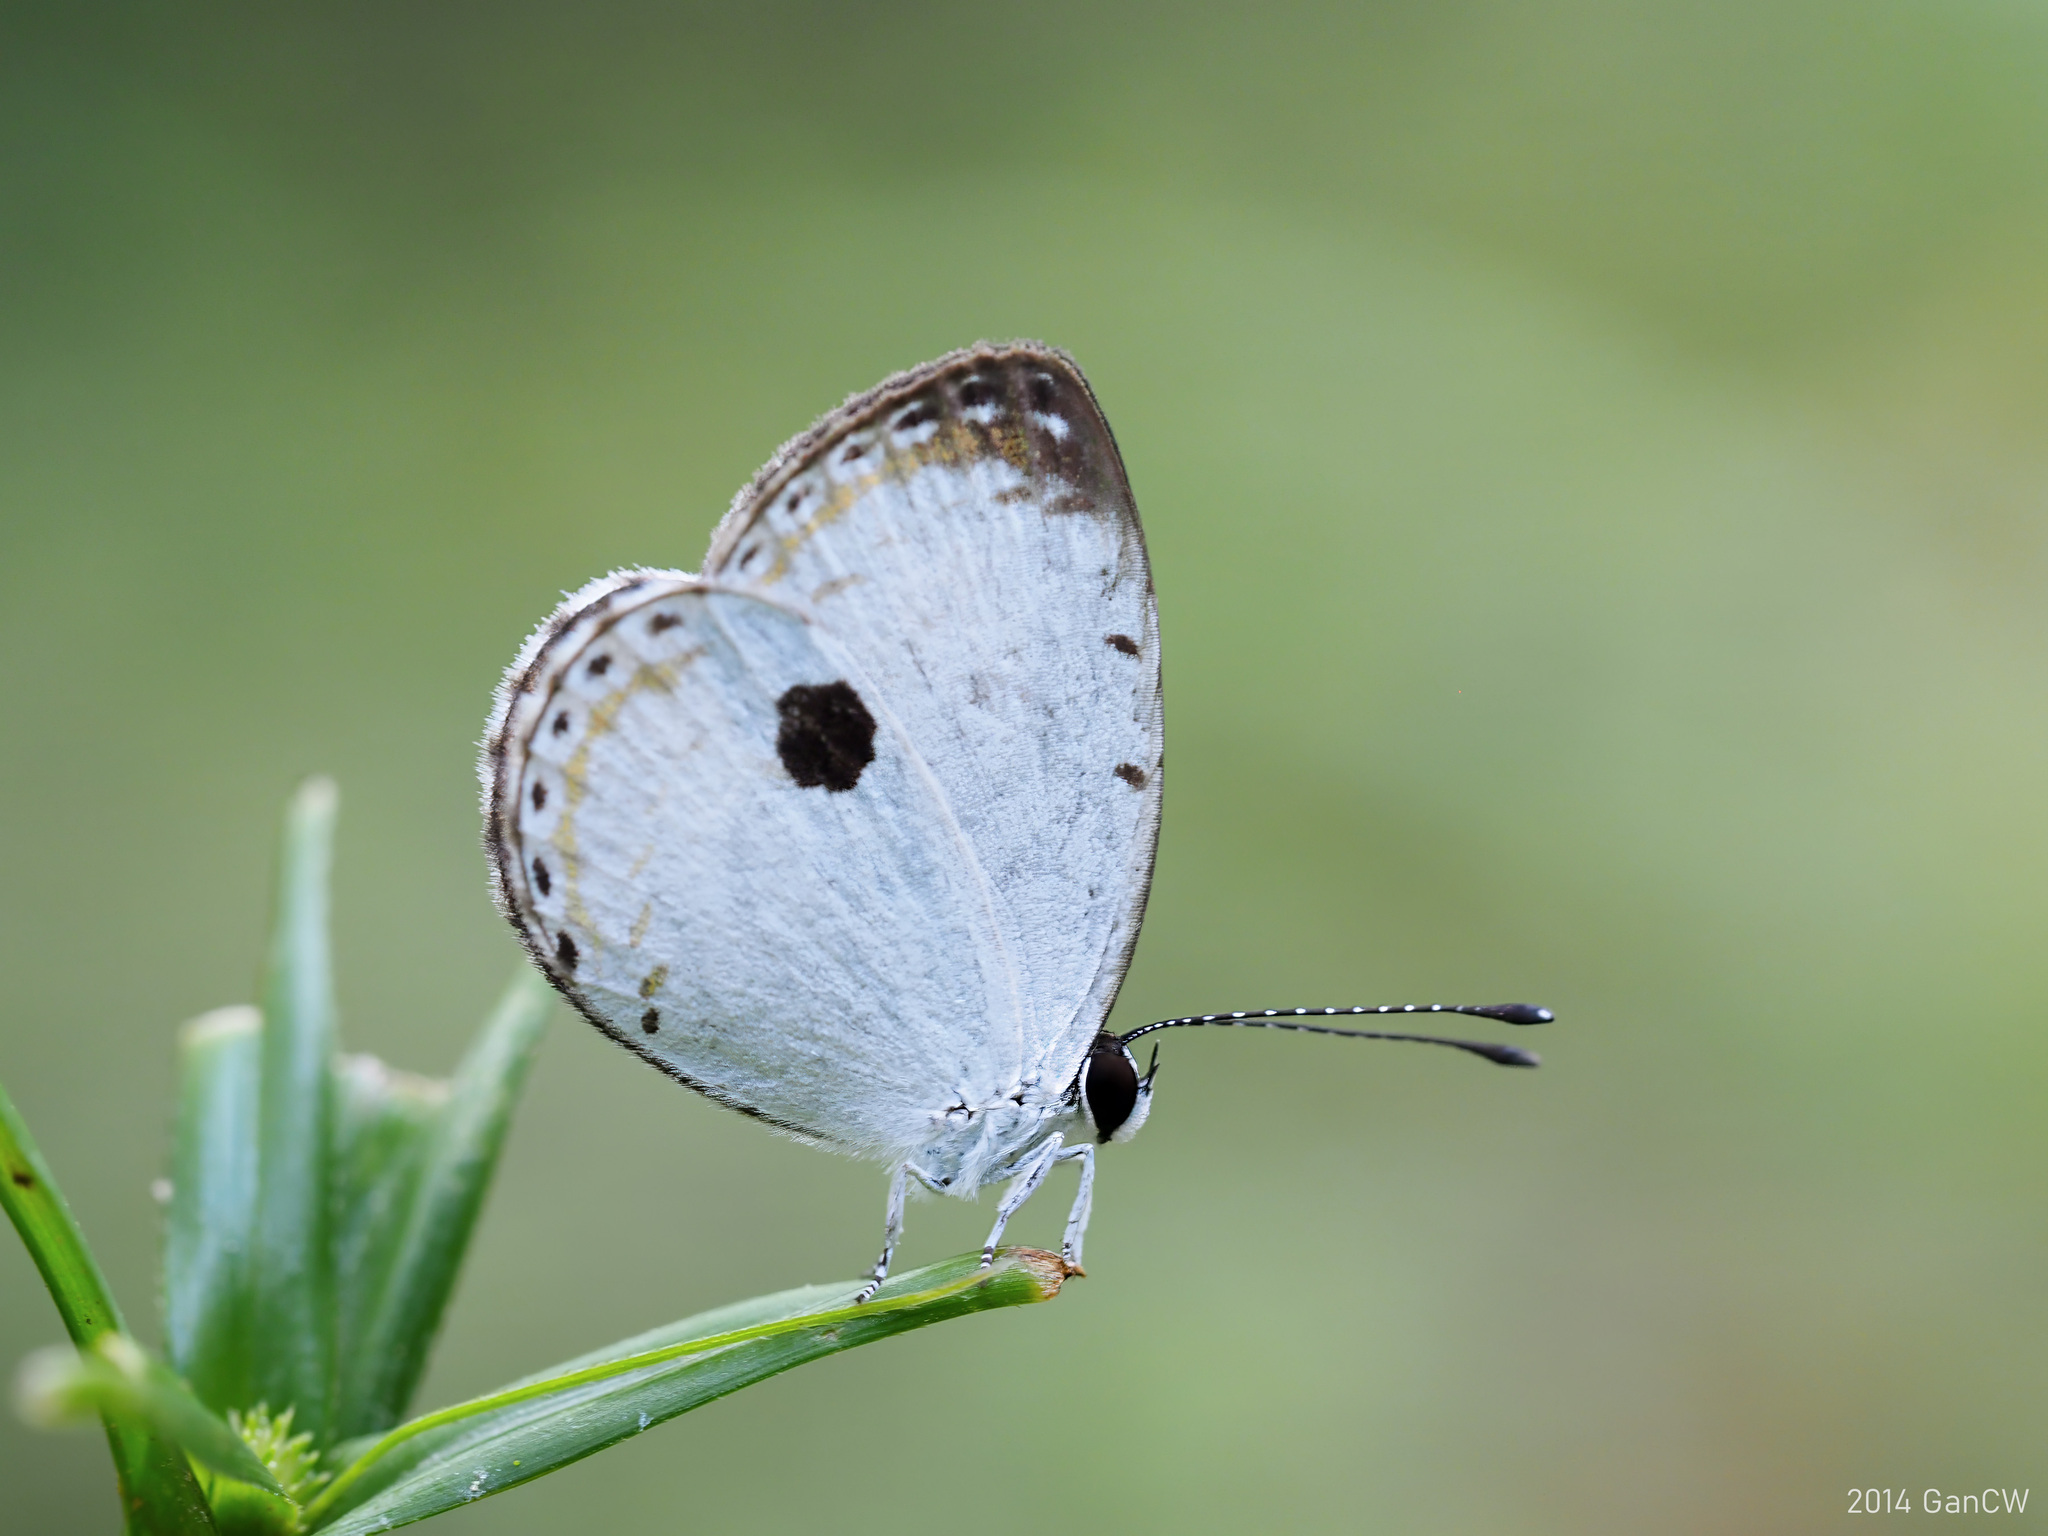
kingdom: Animalia
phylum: Arthropoda
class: Insecta
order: Lepidoptera
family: Lycaenidae
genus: Pithecops
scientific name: Pithecops corvus
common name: Forest quaker
